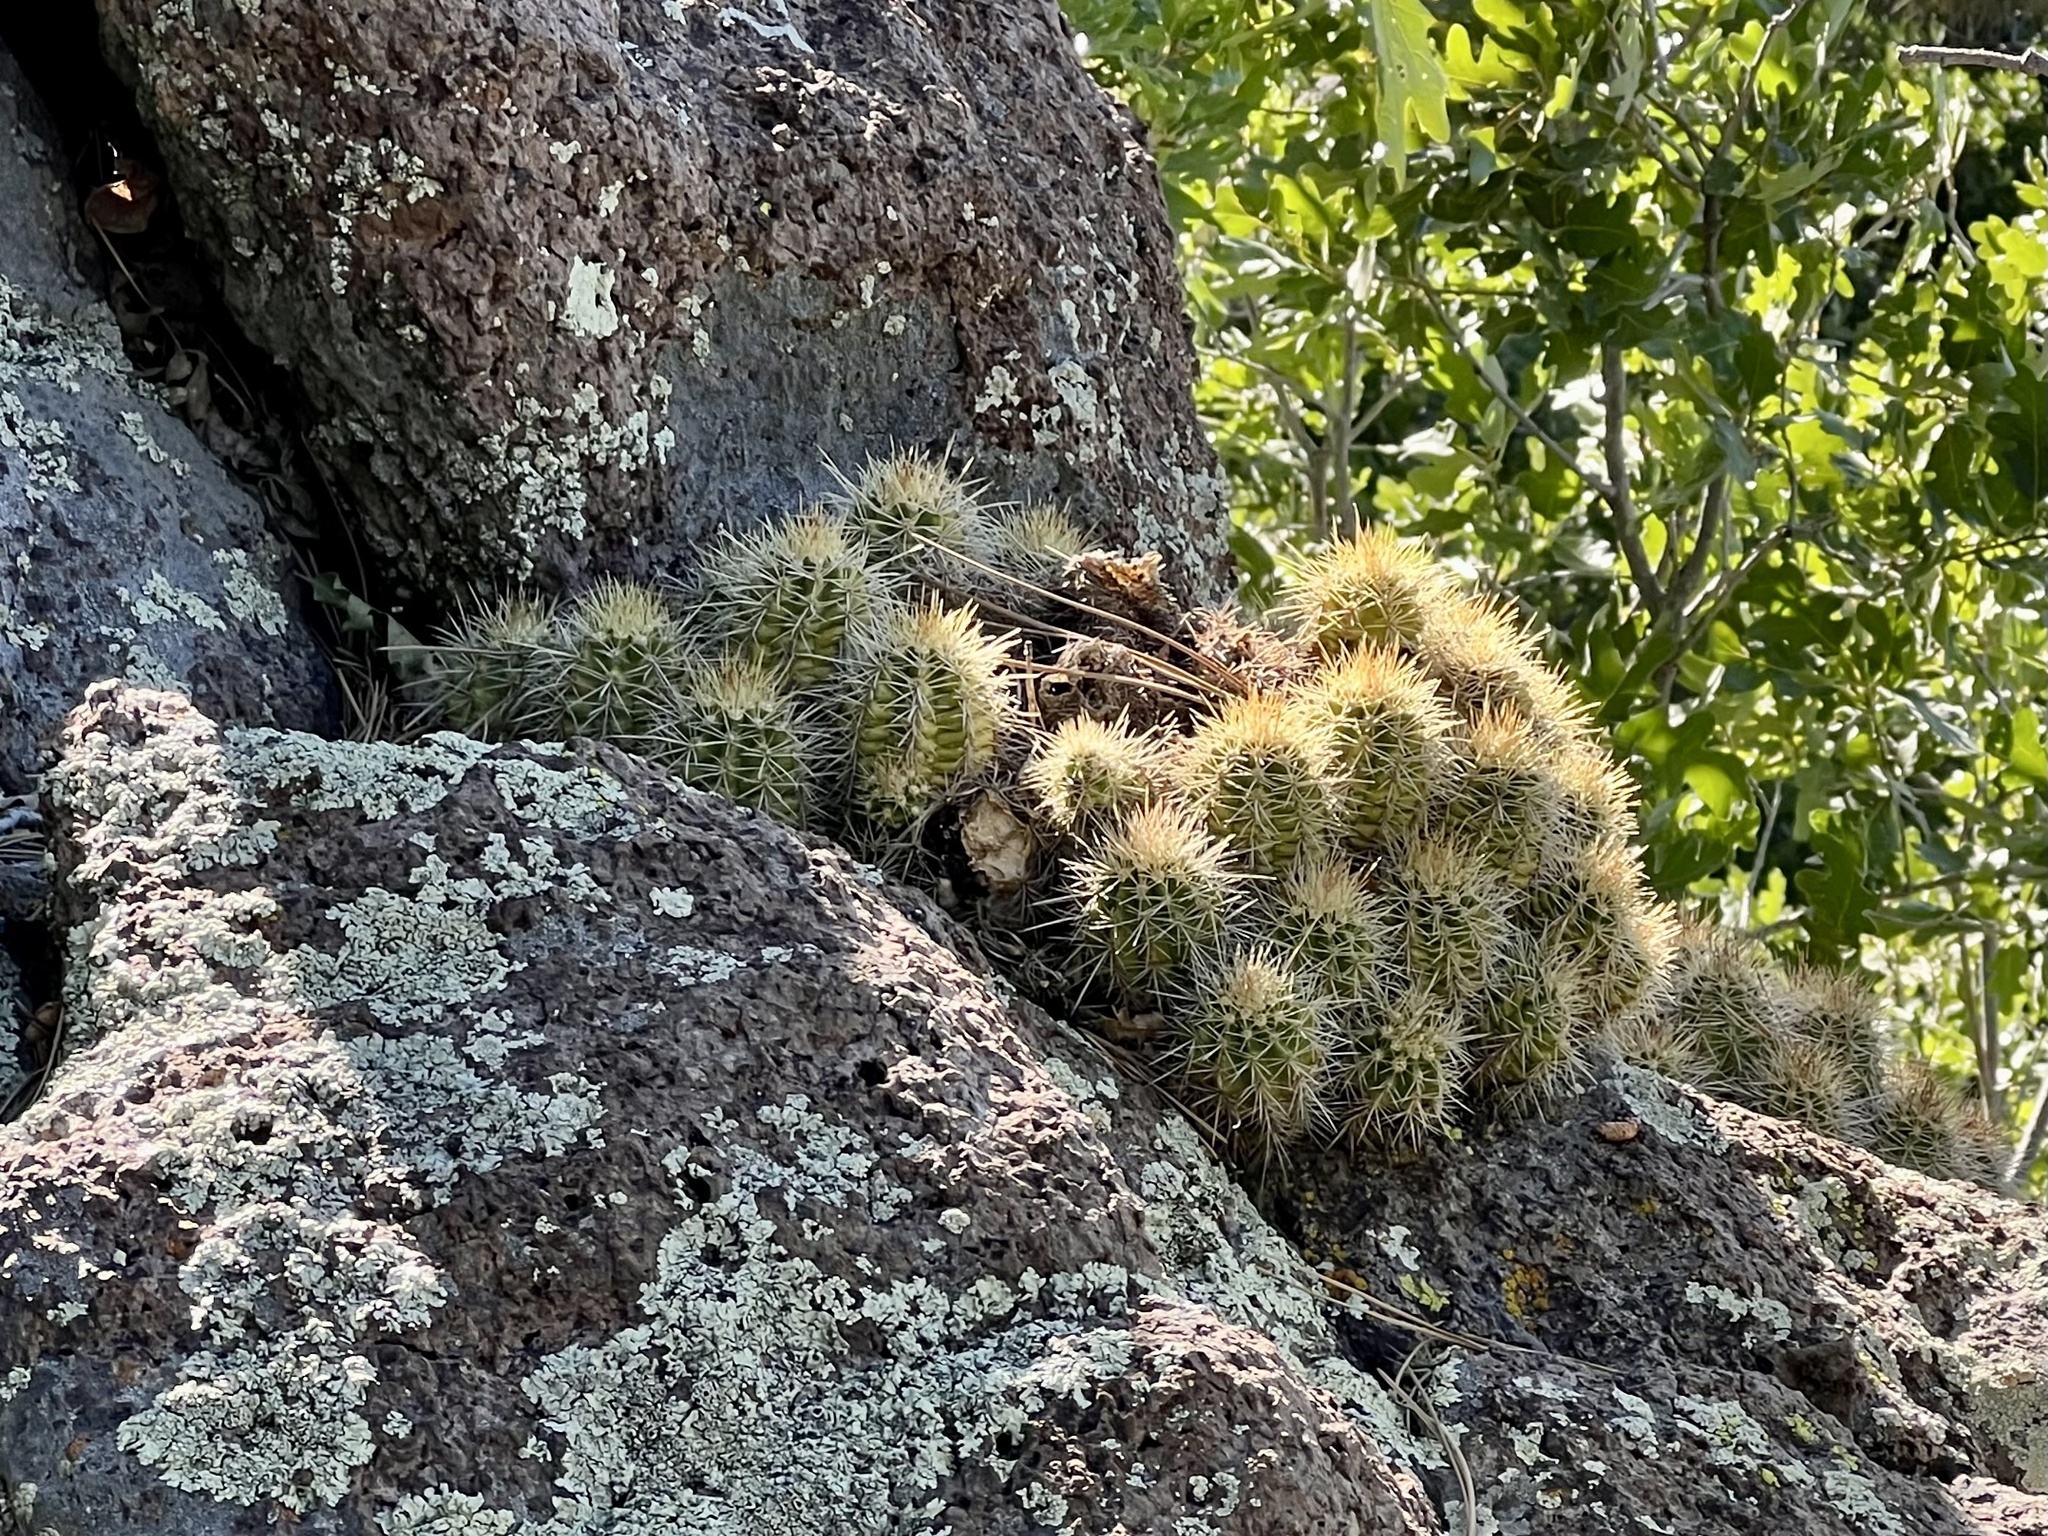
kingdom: Plantae
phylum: Tracheophyta
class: Magnoliopsida
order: Caryophyllales
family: Cactaceae
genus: Echinocereus
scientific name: Echinocereus bakeri
